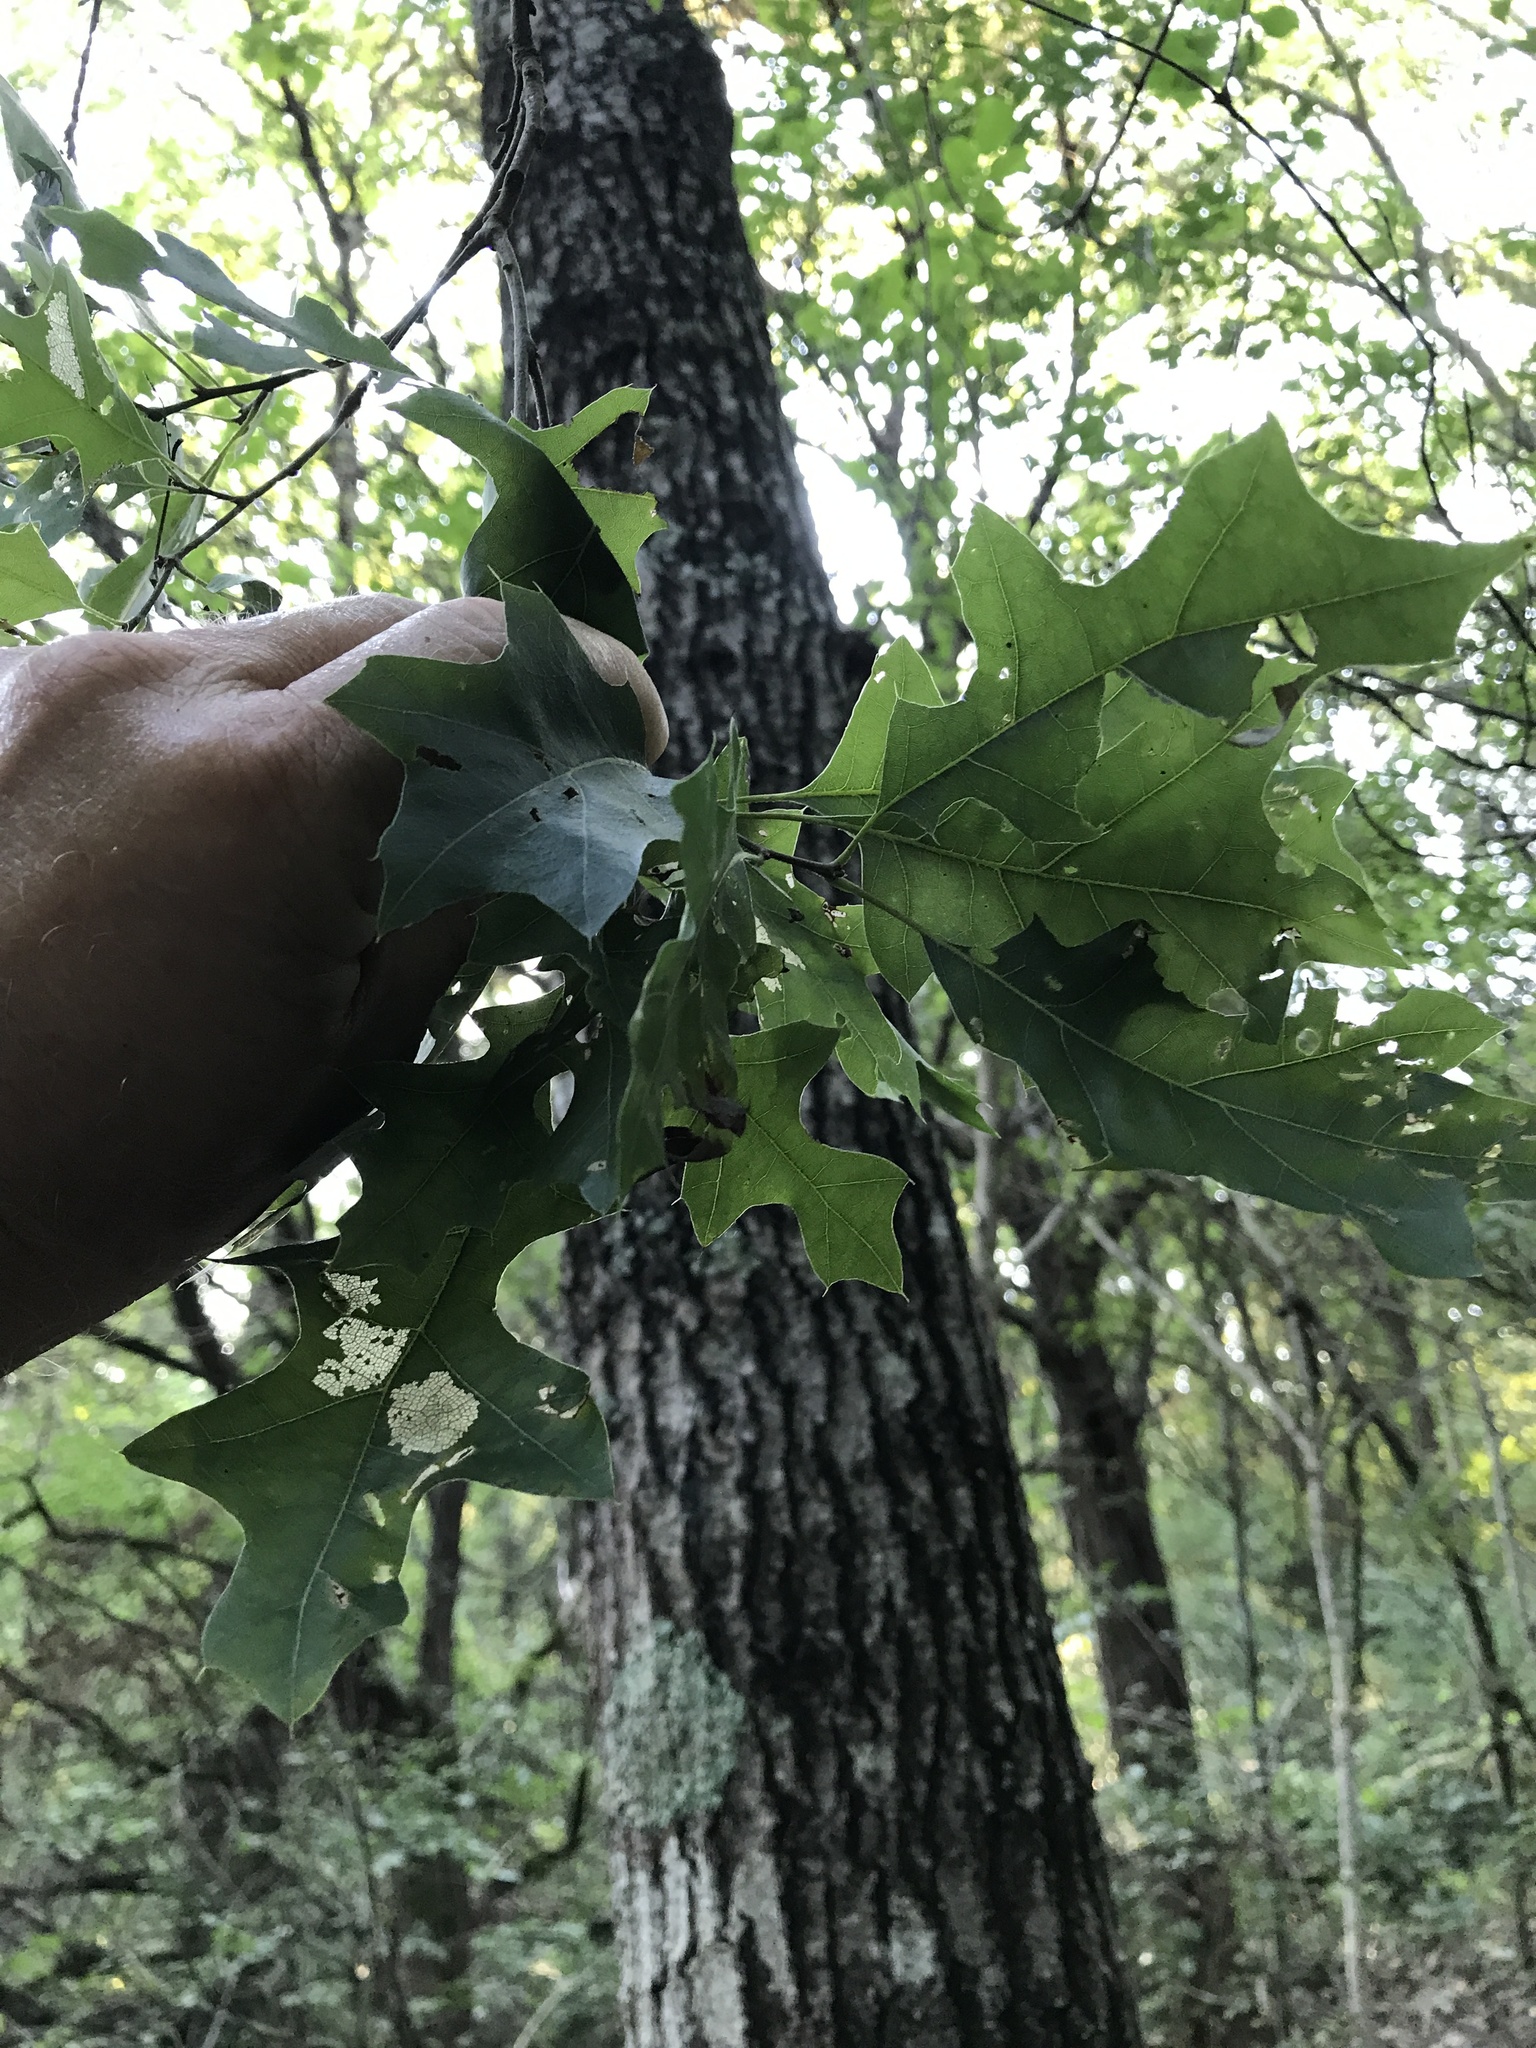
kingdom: Plantae
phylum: Tracheophyta
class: Magnoliopsida
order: Fagales
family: Fagaceae
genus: Quercus
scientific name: Quercus buckleyi
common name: Buckley oak
